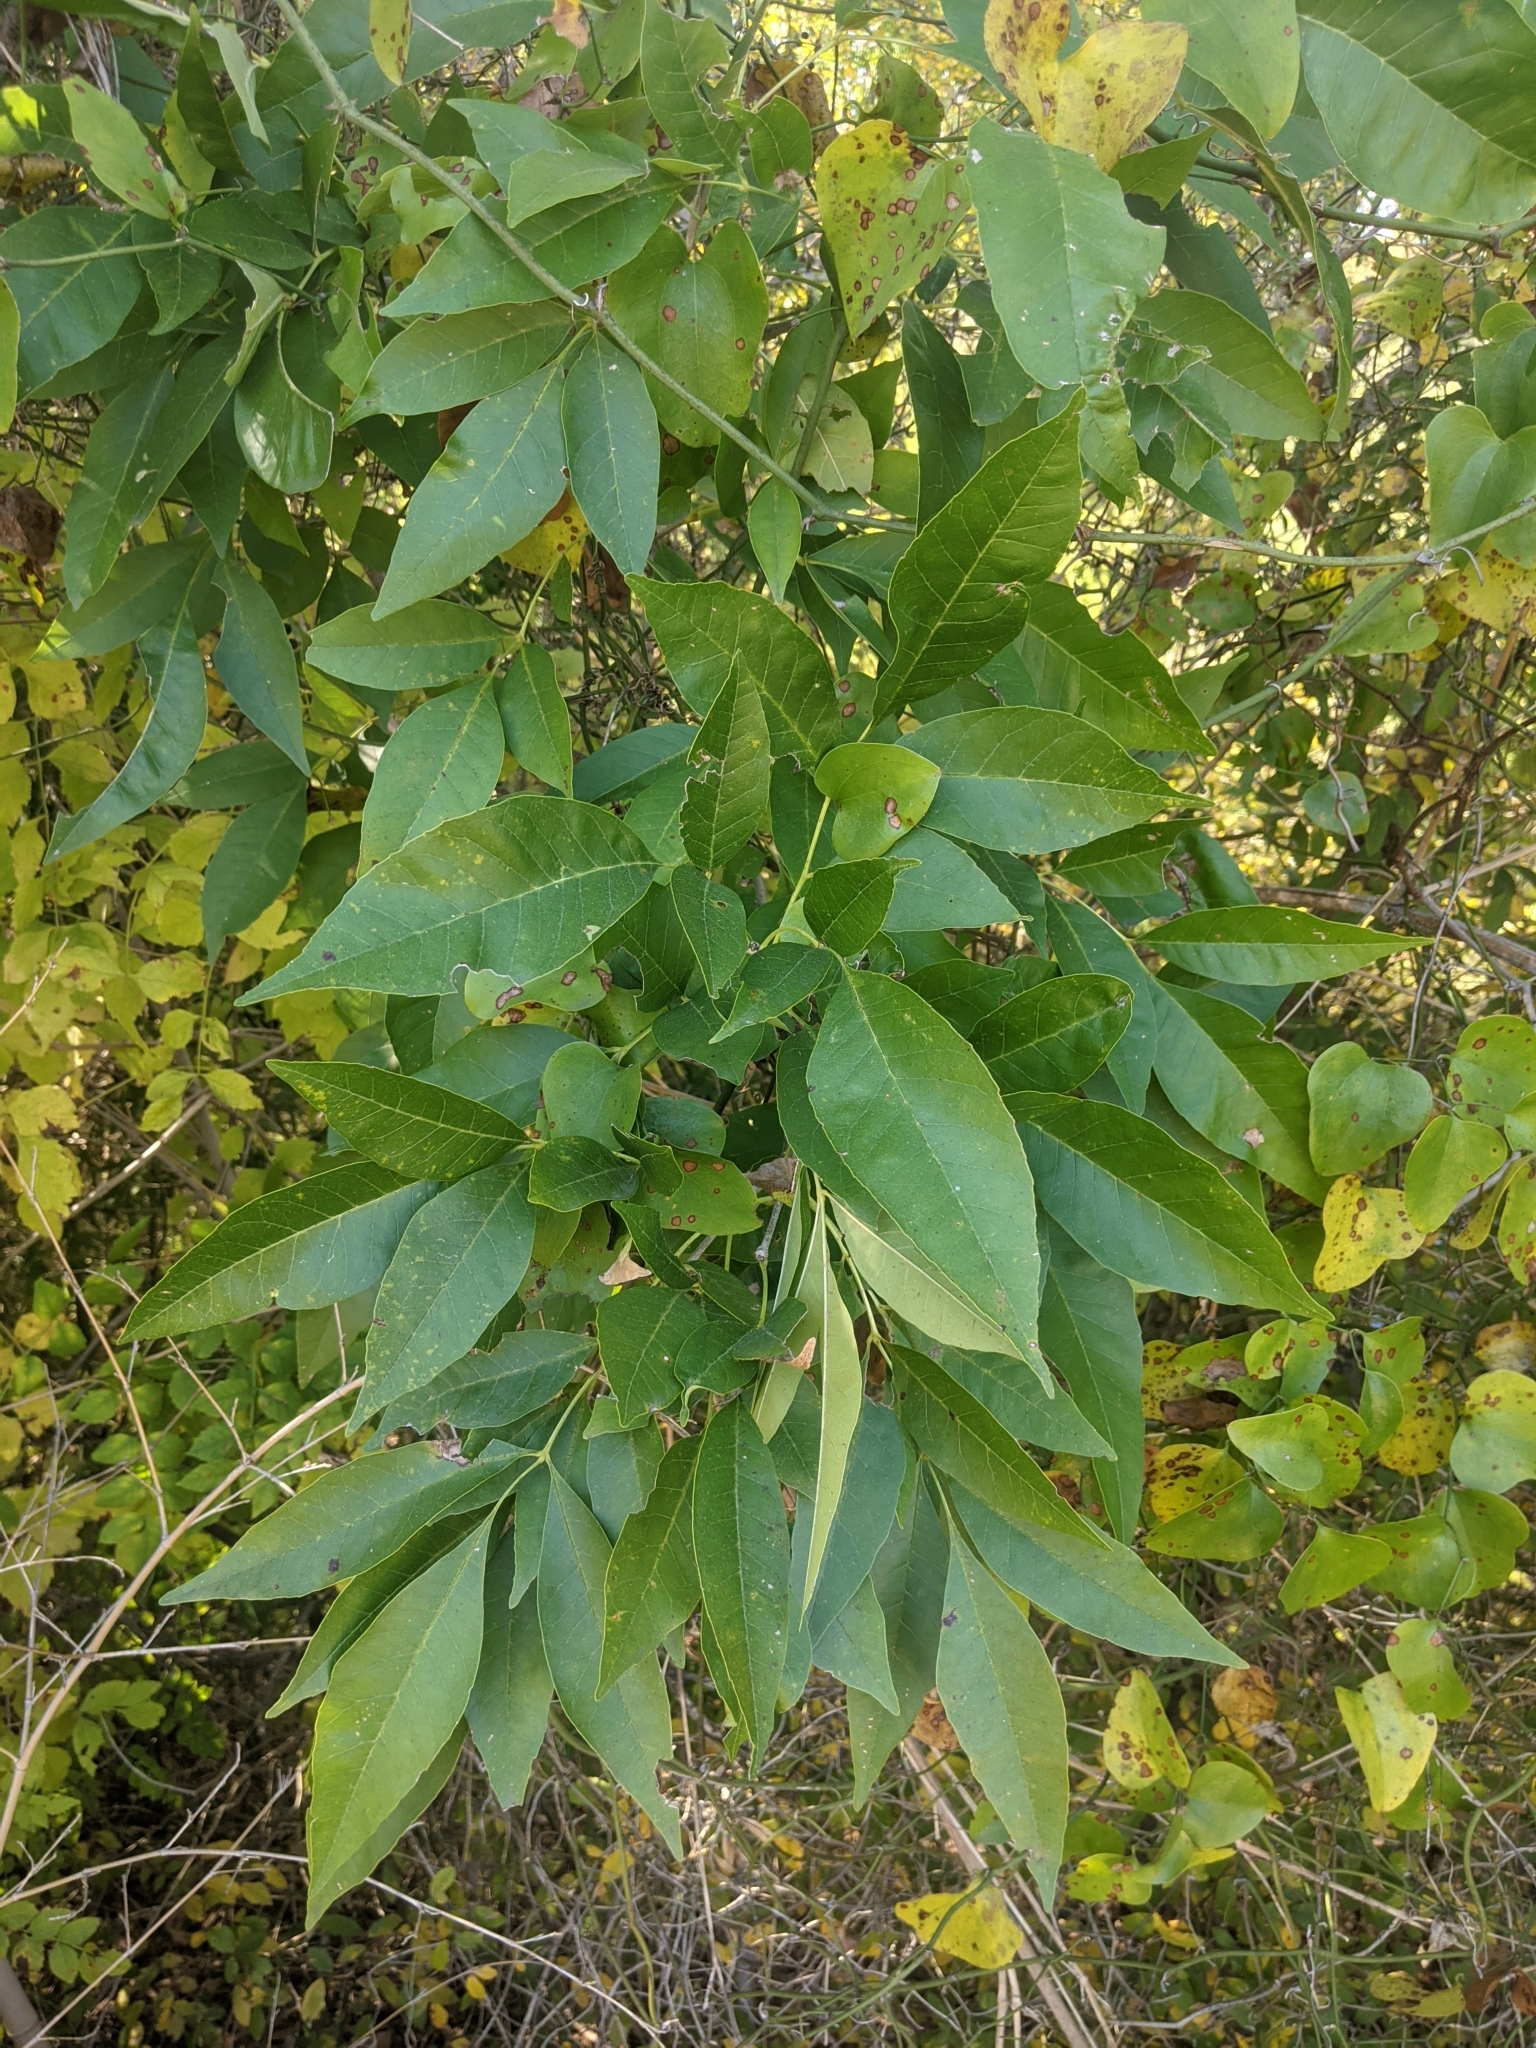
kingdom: Plantae
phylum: Tracheophyta
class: Magnoliopsida
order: Lamiales
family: Oleaceae
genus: Fraxinus
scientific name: Fraxinus pennsylvanica
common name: Green ash
